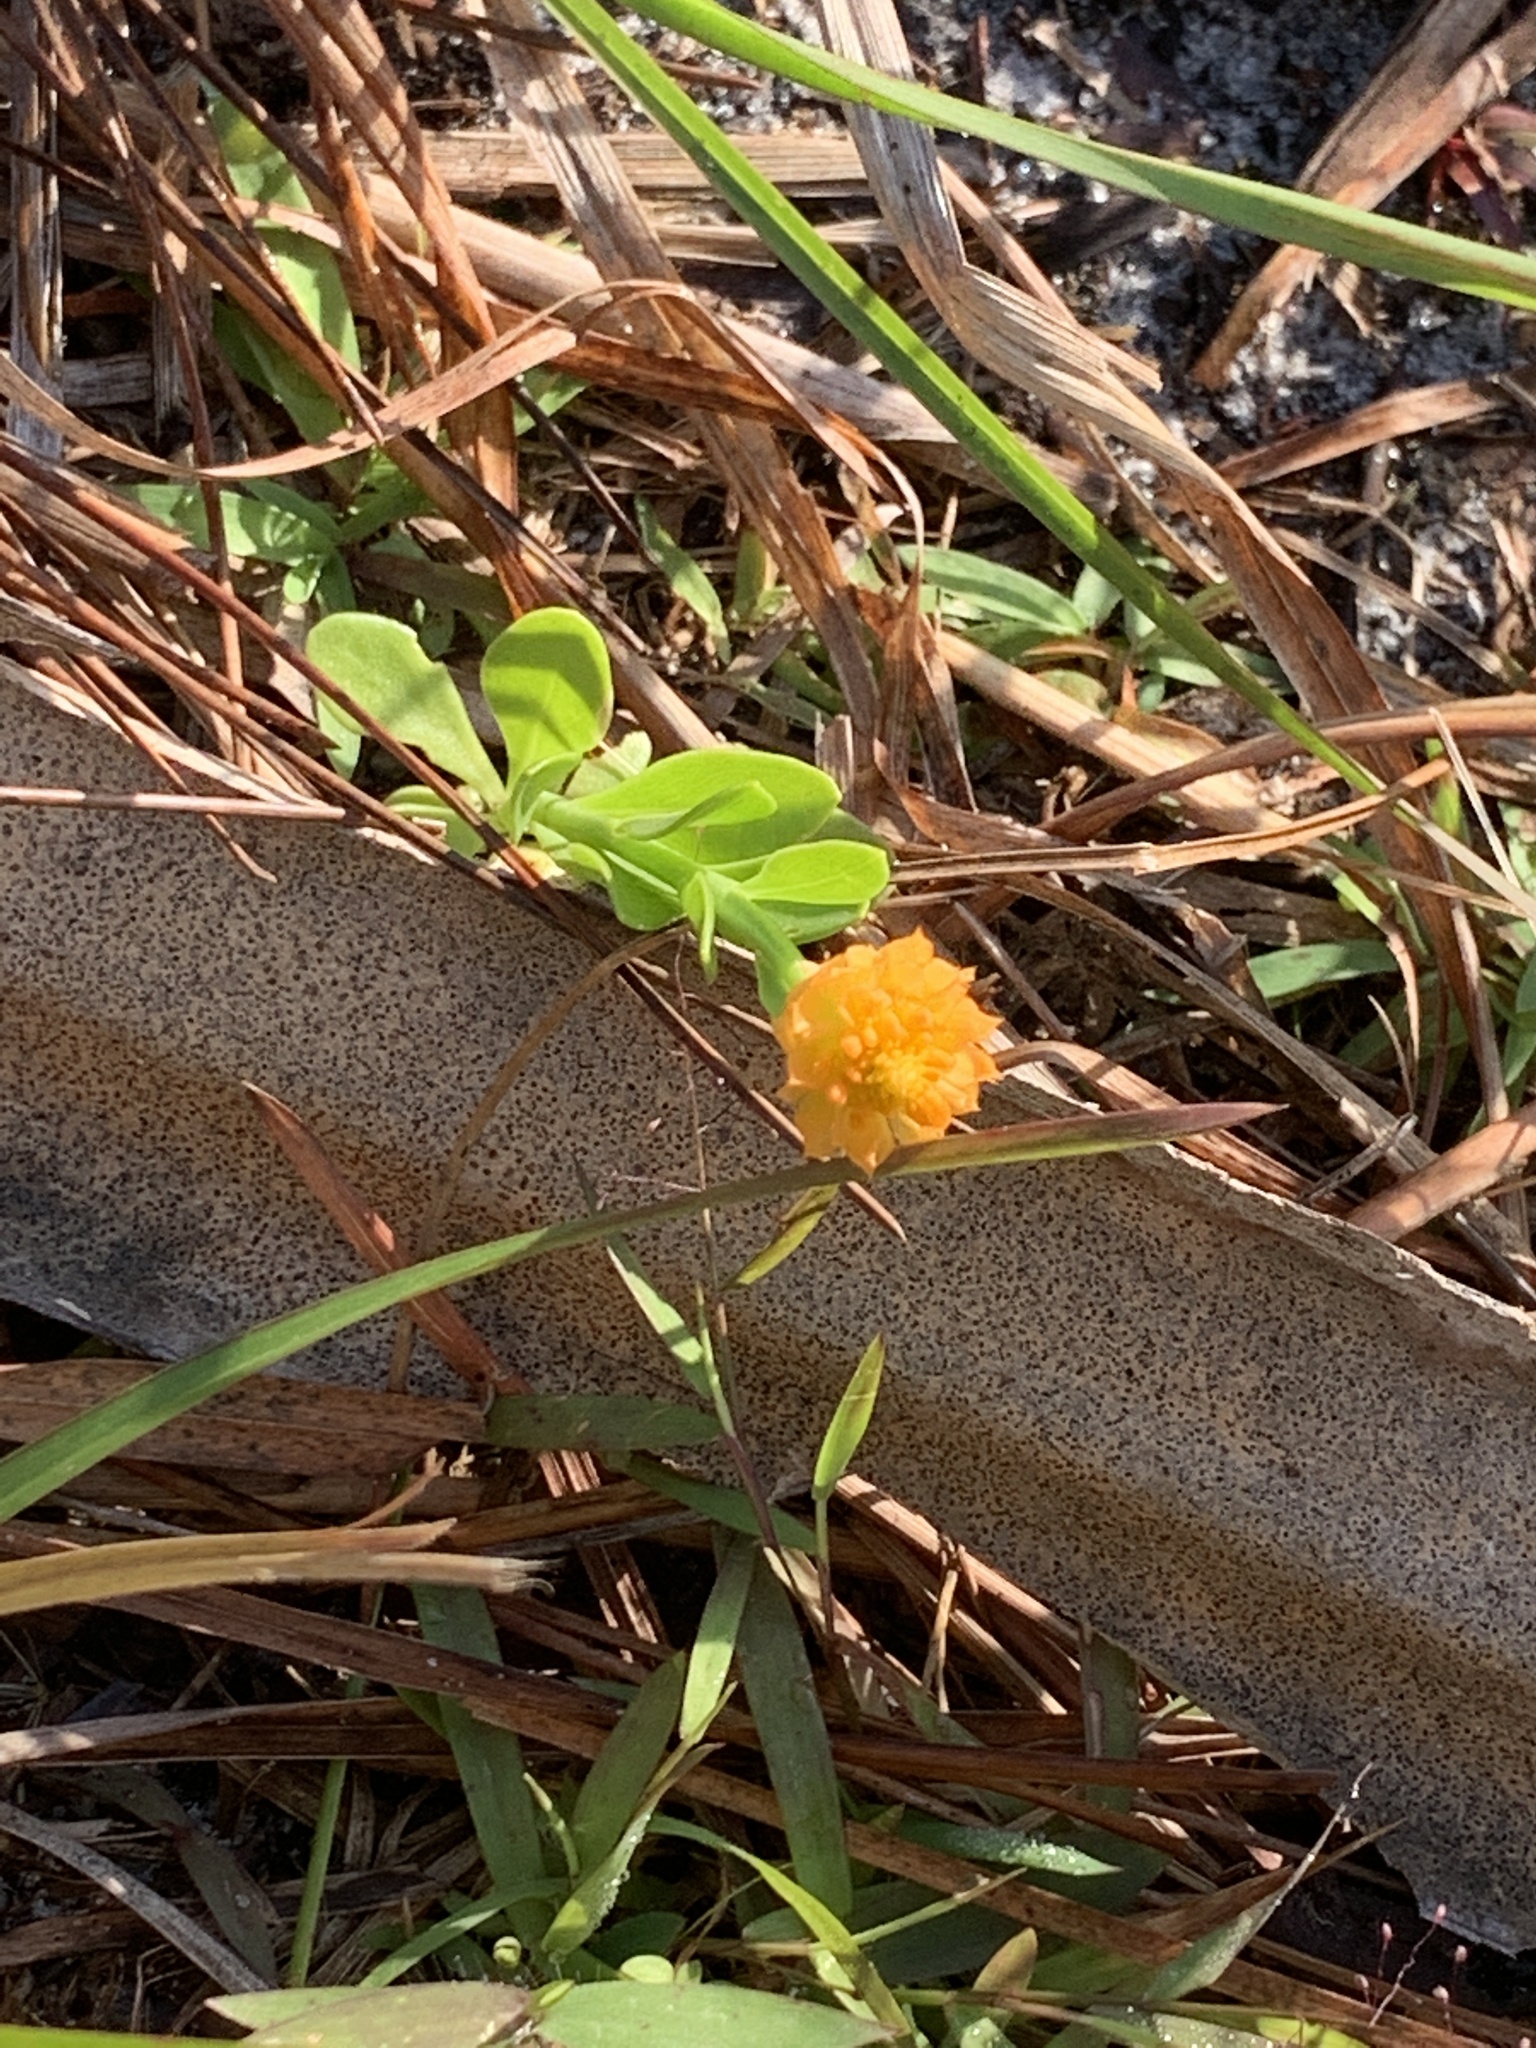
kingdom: Plantae
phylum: Tracheophyta
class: Magnoliopsida
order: Fabales
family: Polygalaceae
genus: Polygala
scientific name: Polygala lutea
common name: Orange milkwort
